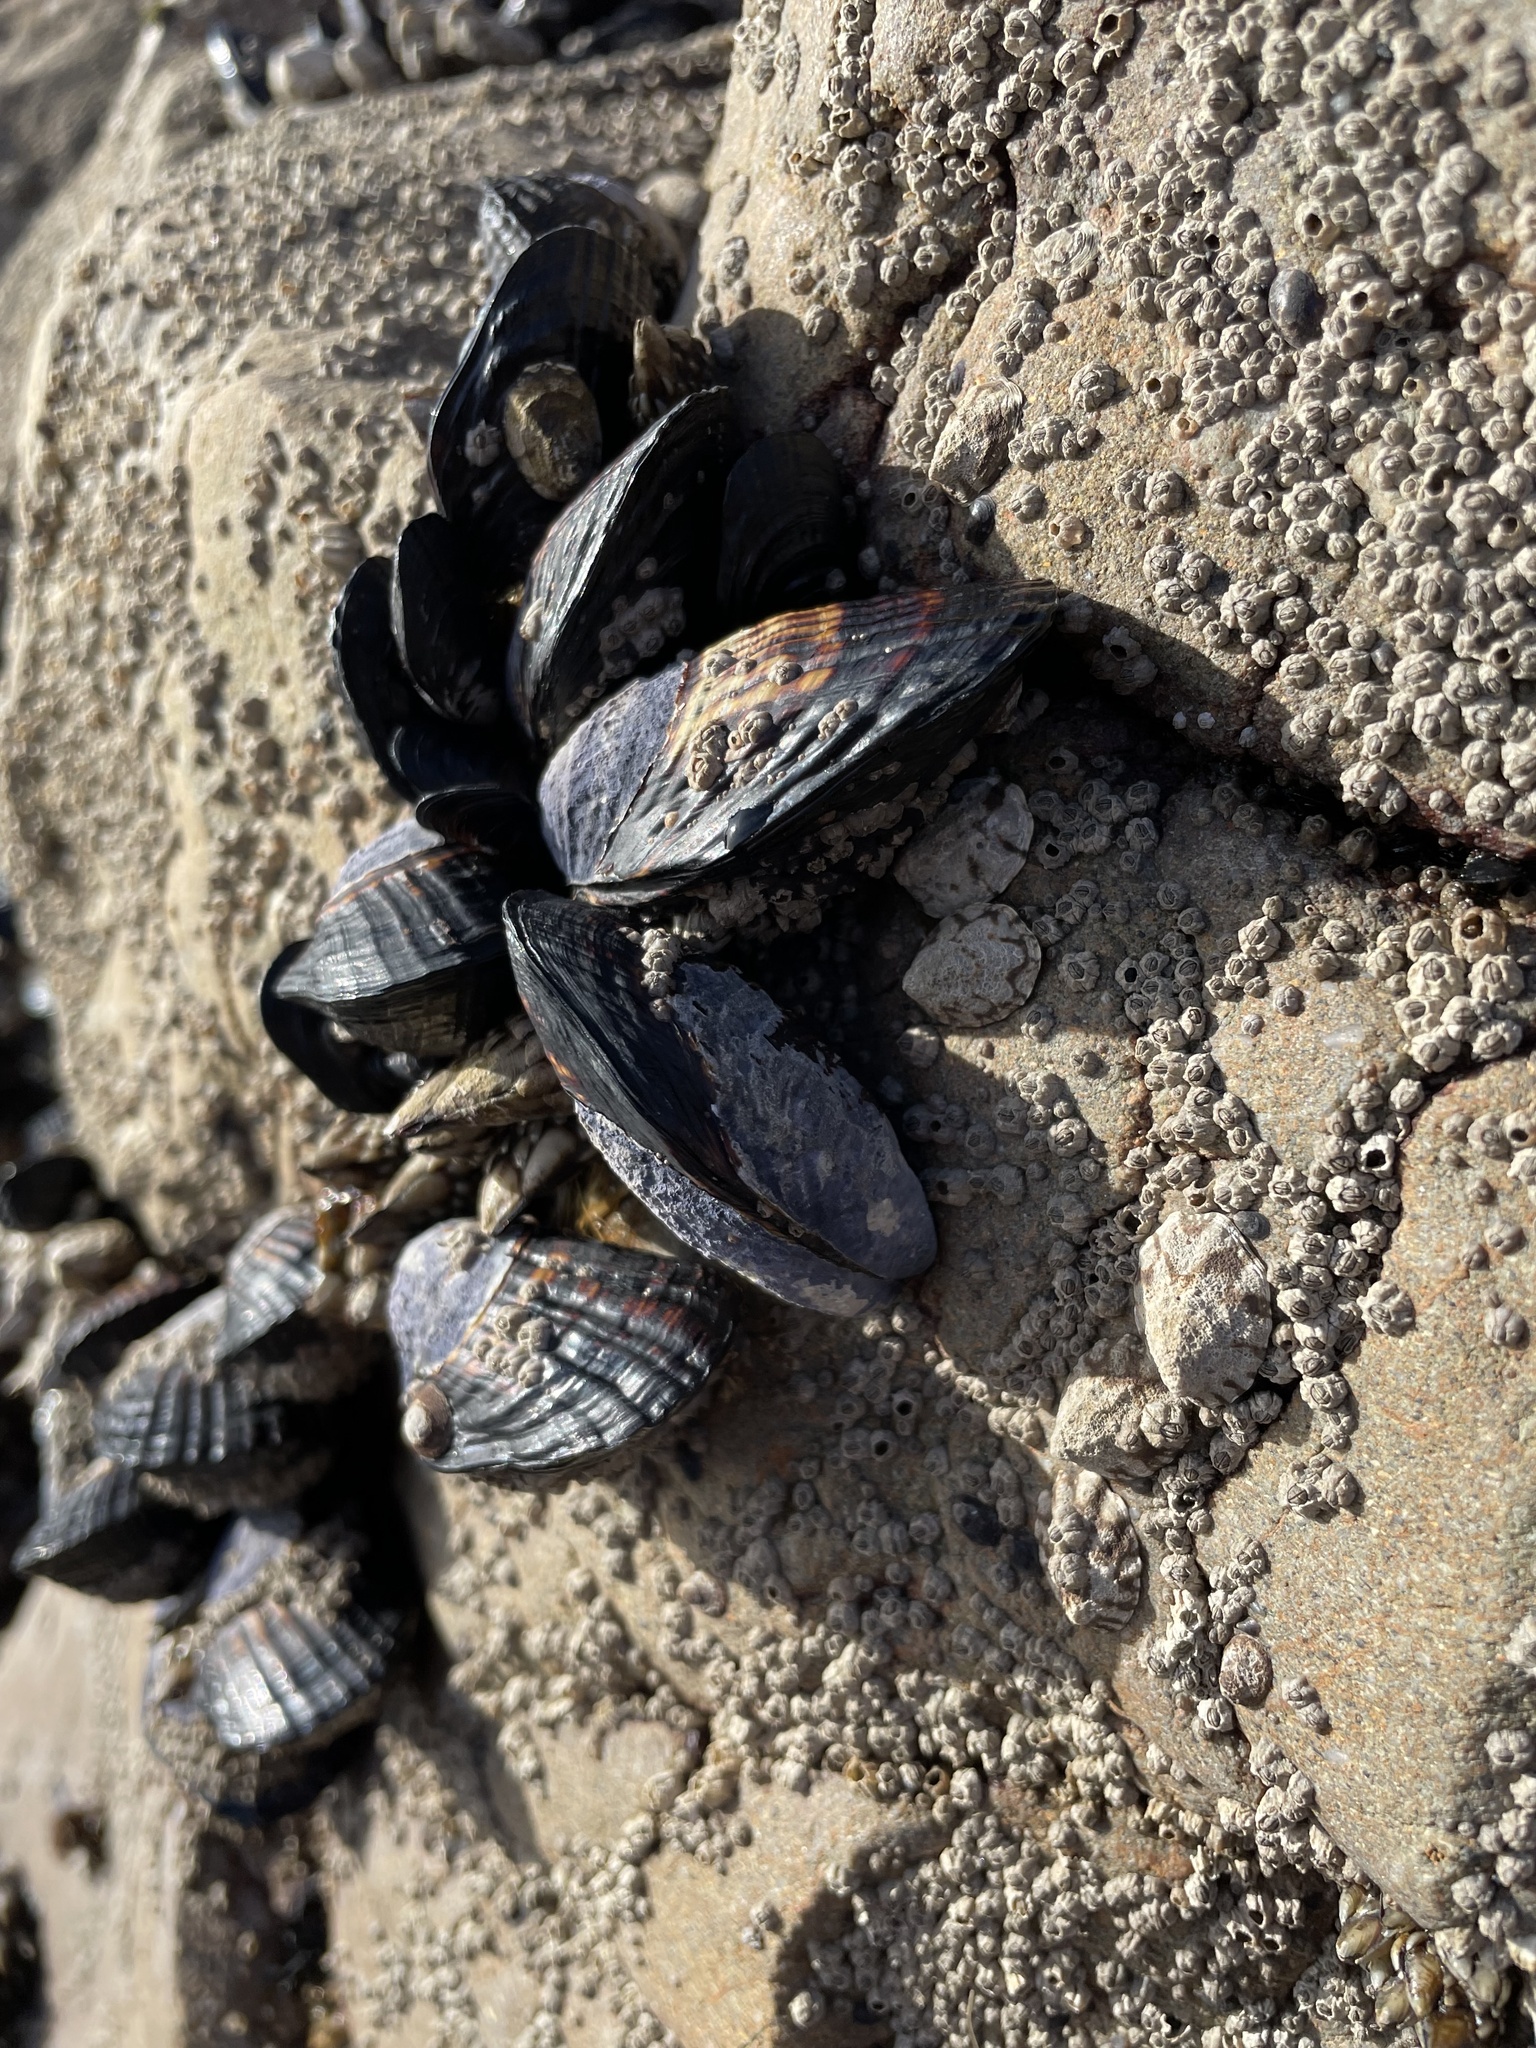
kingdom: Animalia
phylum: Mollusca
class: Bivalvia
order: Mytilida
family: Mytilidae
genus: Mytilus
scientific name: Mytilus californianus
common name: California mussel
